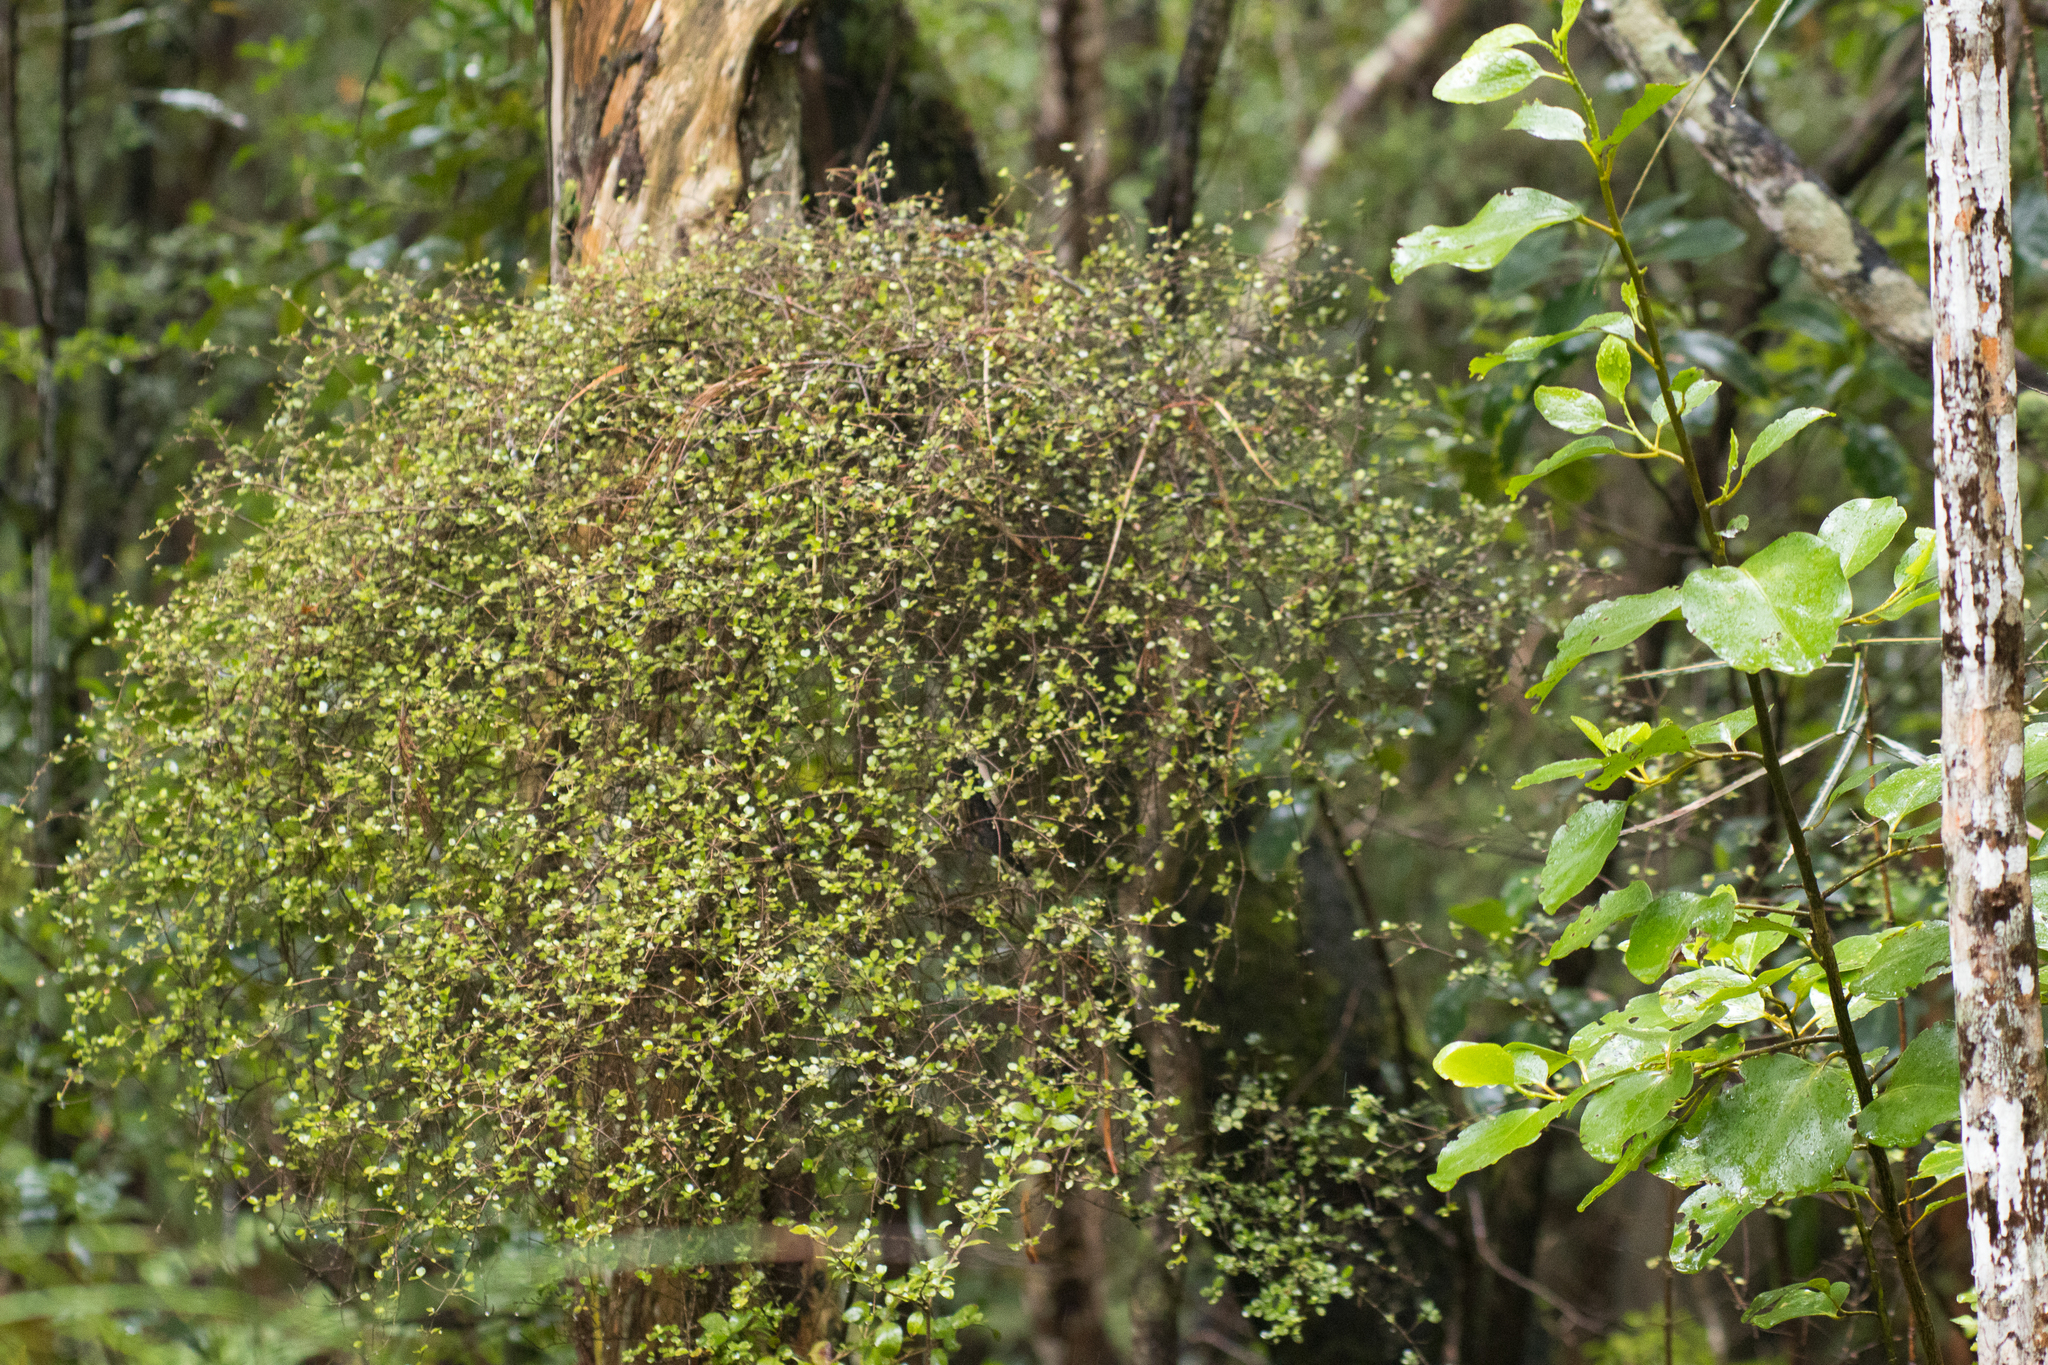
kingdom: Plantae
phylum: Tracheophyta
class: Magnoliopsida
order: Gentianales
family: Rubiaceae
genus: Coprosma
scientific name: Coprosma rhamnoides
